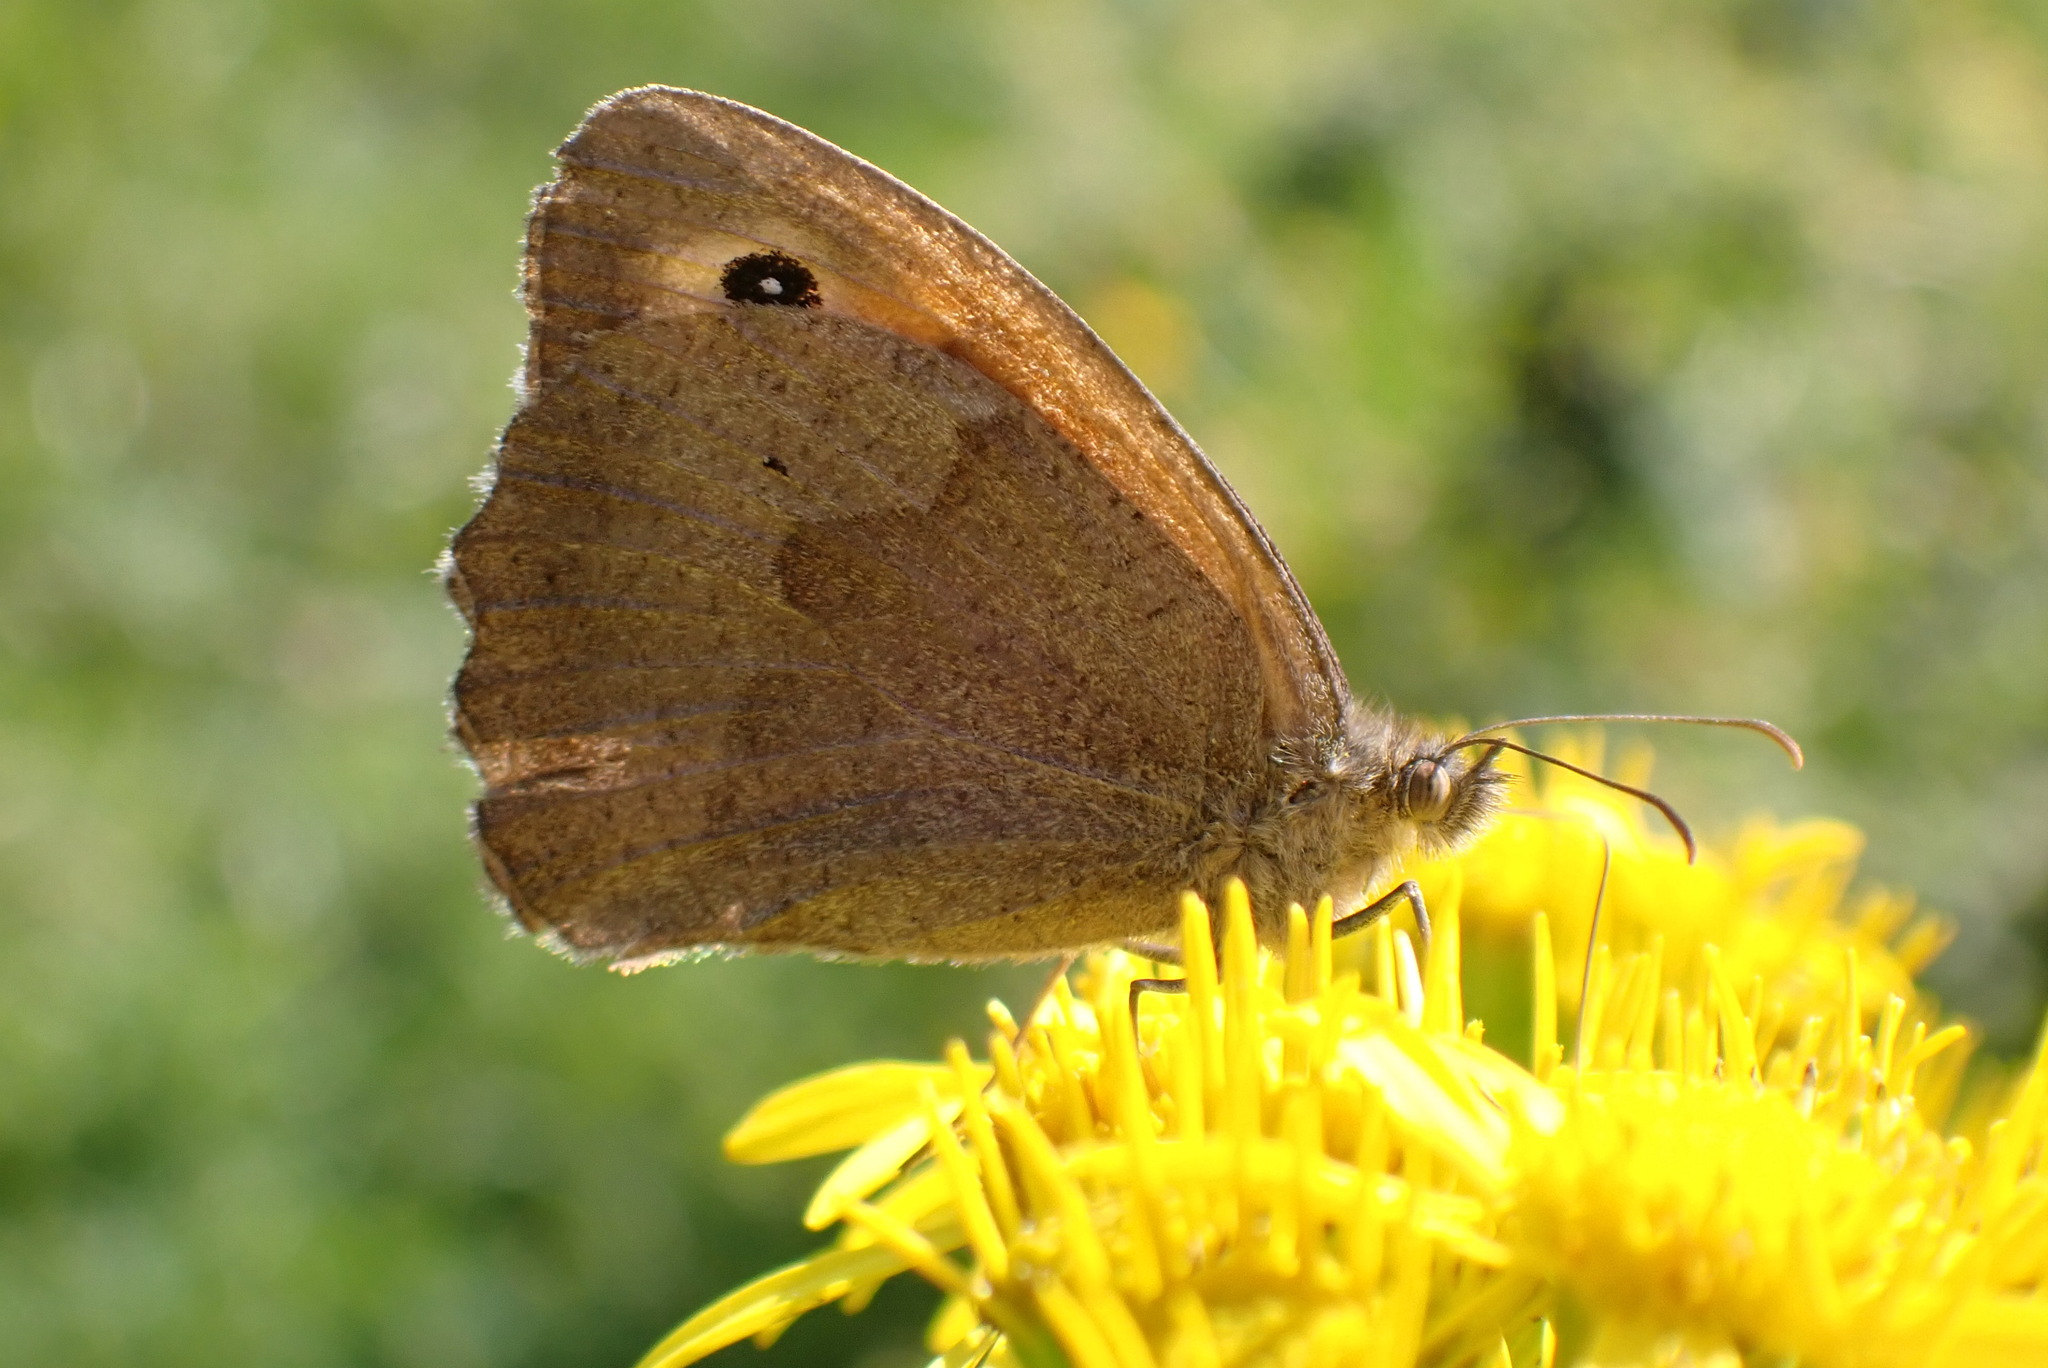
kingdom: Animalia
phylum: Arthropoda
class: Insecta
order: Lepidoptera
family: Nymphalidae
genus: Maniola
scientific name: Maniola jurtina
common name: Meadow brown
